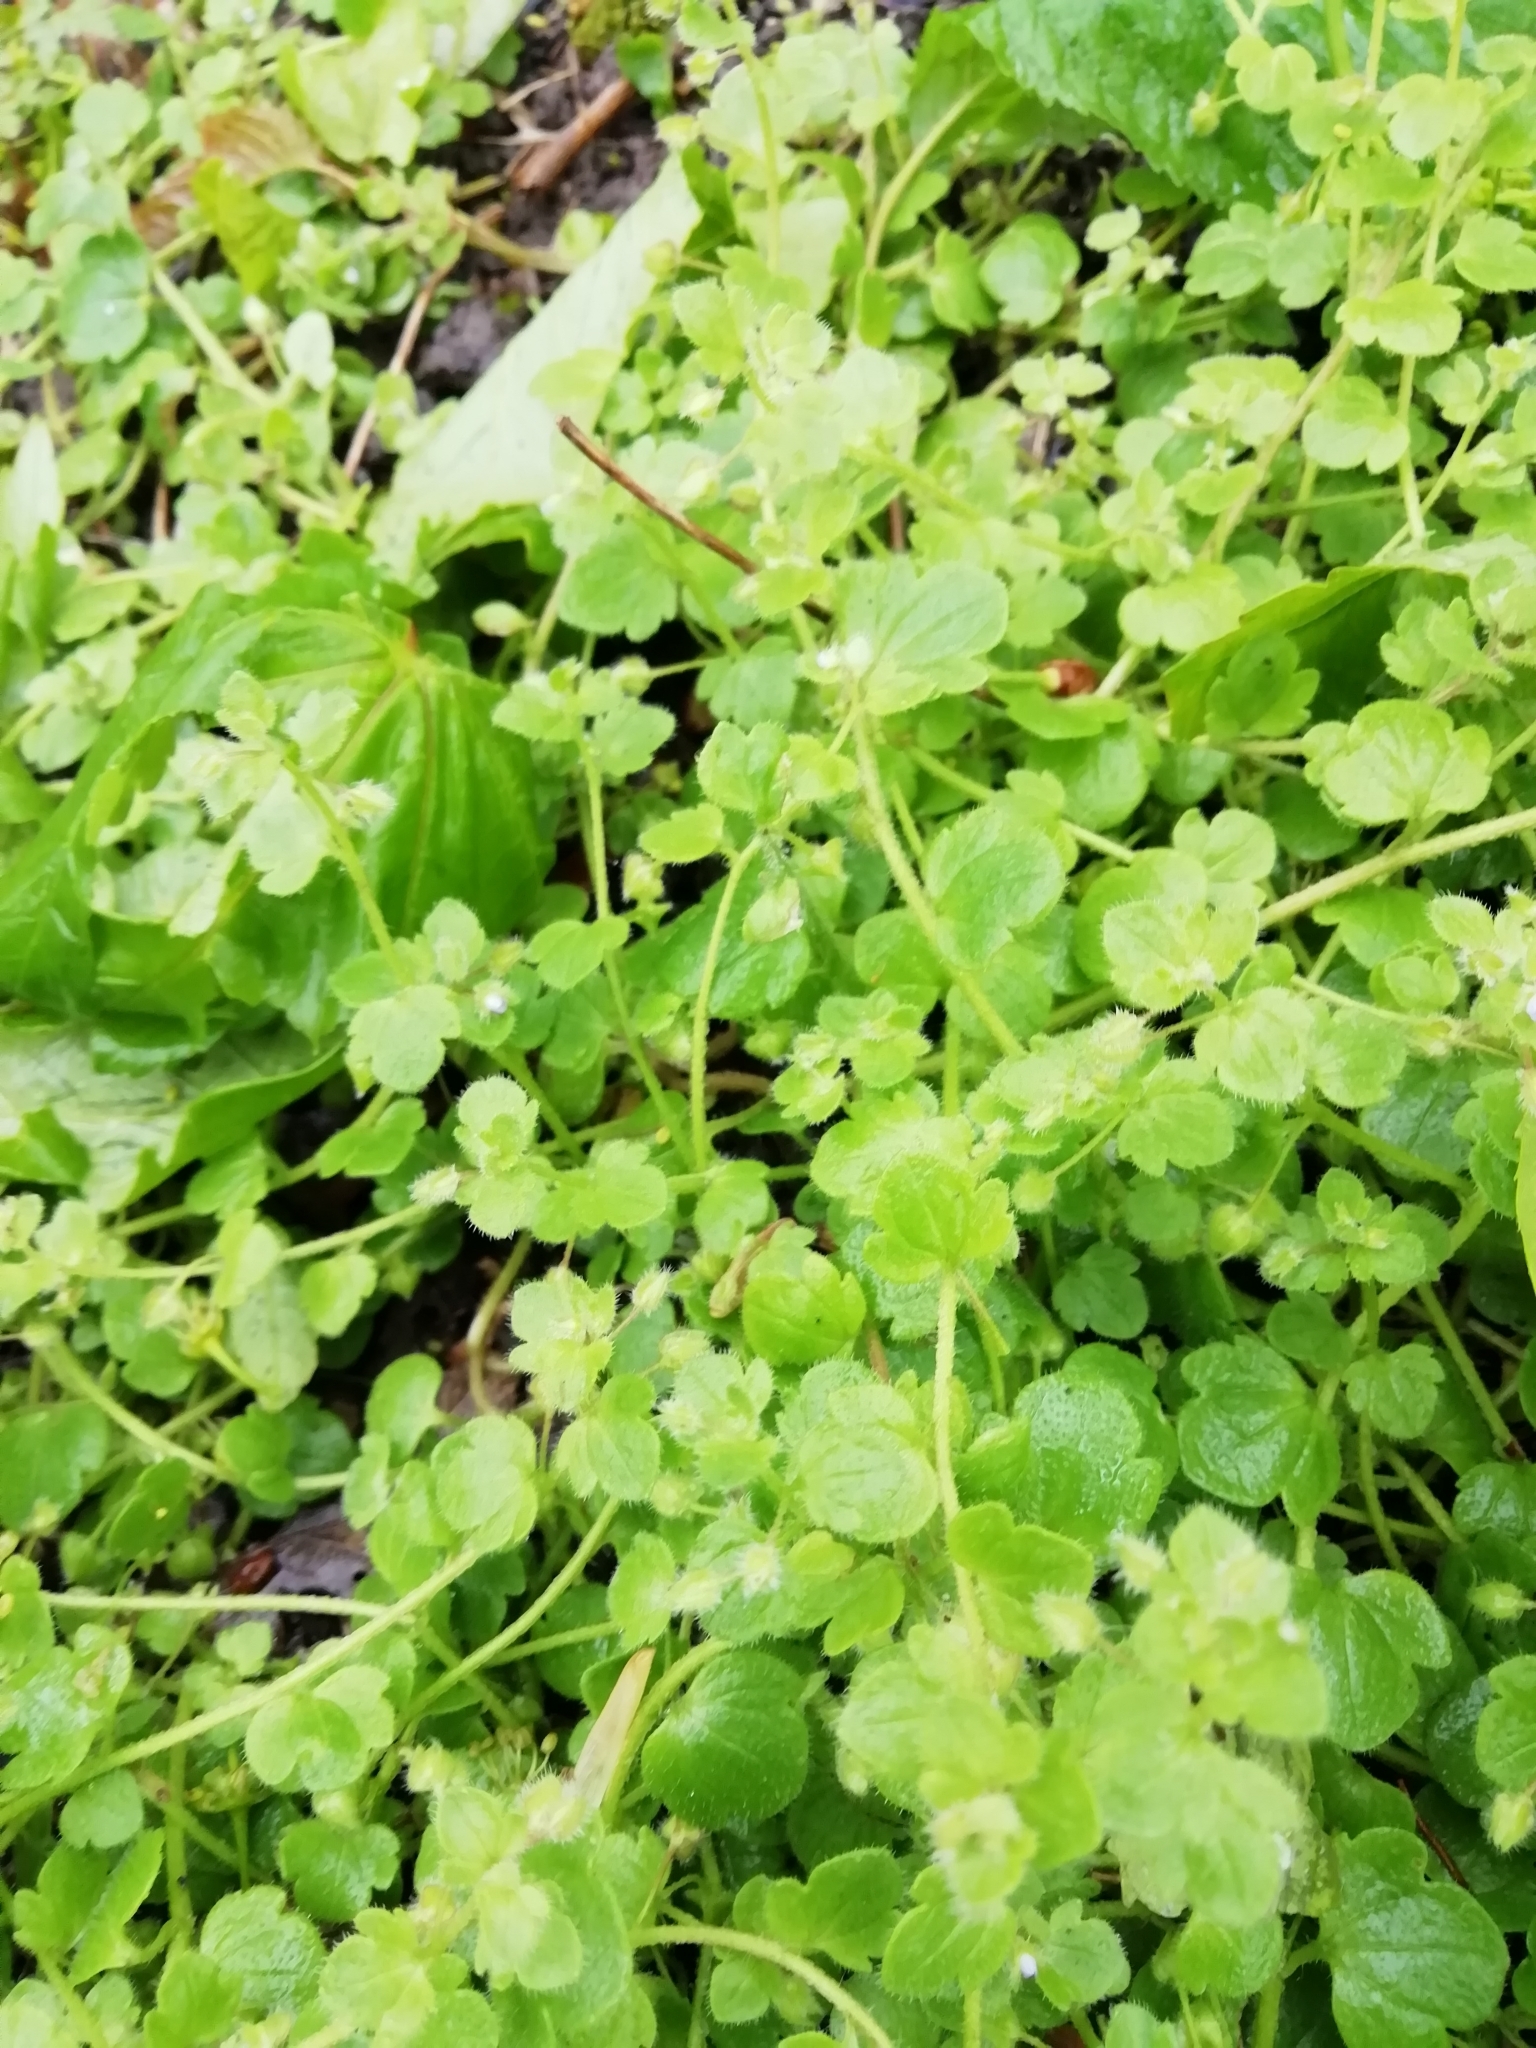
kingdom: Plantae
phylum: Tracheophyta
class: Magnoliopsida
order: Lamiales
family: Plantaginaceae
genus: Veronica
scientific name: Veronica hederifolia
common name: Ivy-leaved speedwell
